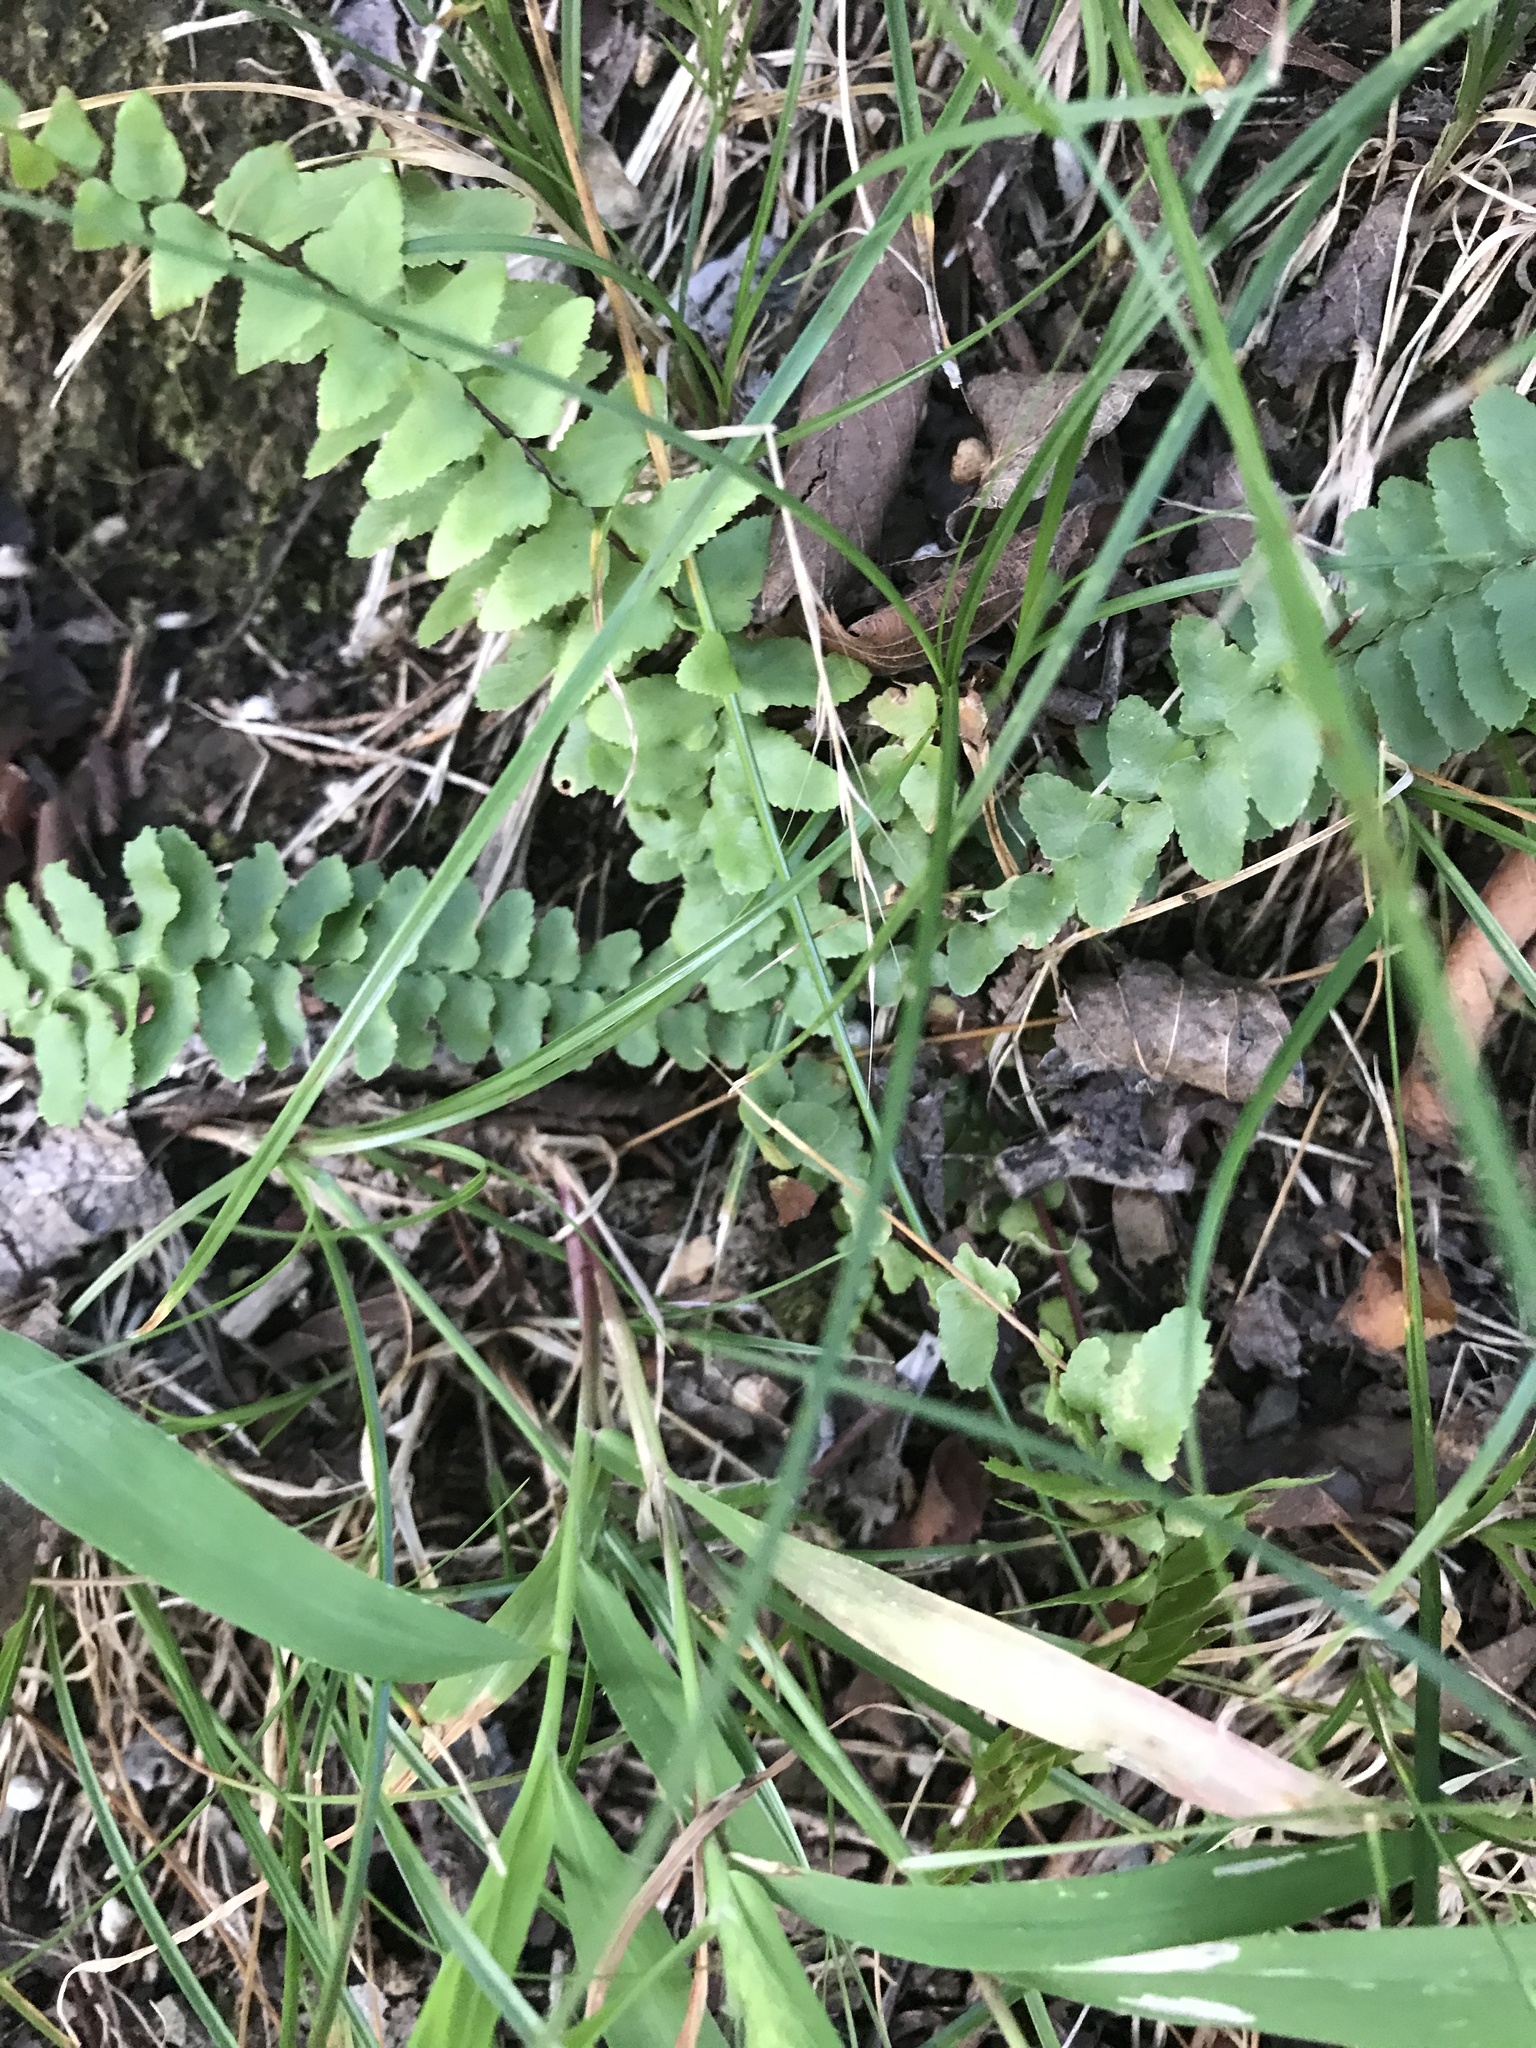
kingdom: Plantae
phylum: Tracheophyta
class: Polypodiopsida
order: Polypodiales
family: Aspleniaceae
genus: Asplenium
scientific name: Asplenium platyneuron
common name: Ebony spleenwort
